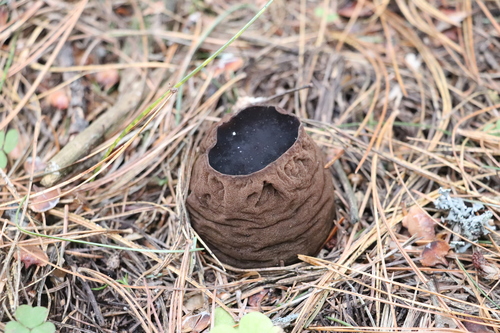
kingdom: Fungi
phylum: Ascomycota
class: Pezizomycetes
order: Pezizales
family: Sarcosomataceae
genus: Sarcosoma
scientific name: Sarcosoma globosum
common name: Charred-pancake cup
